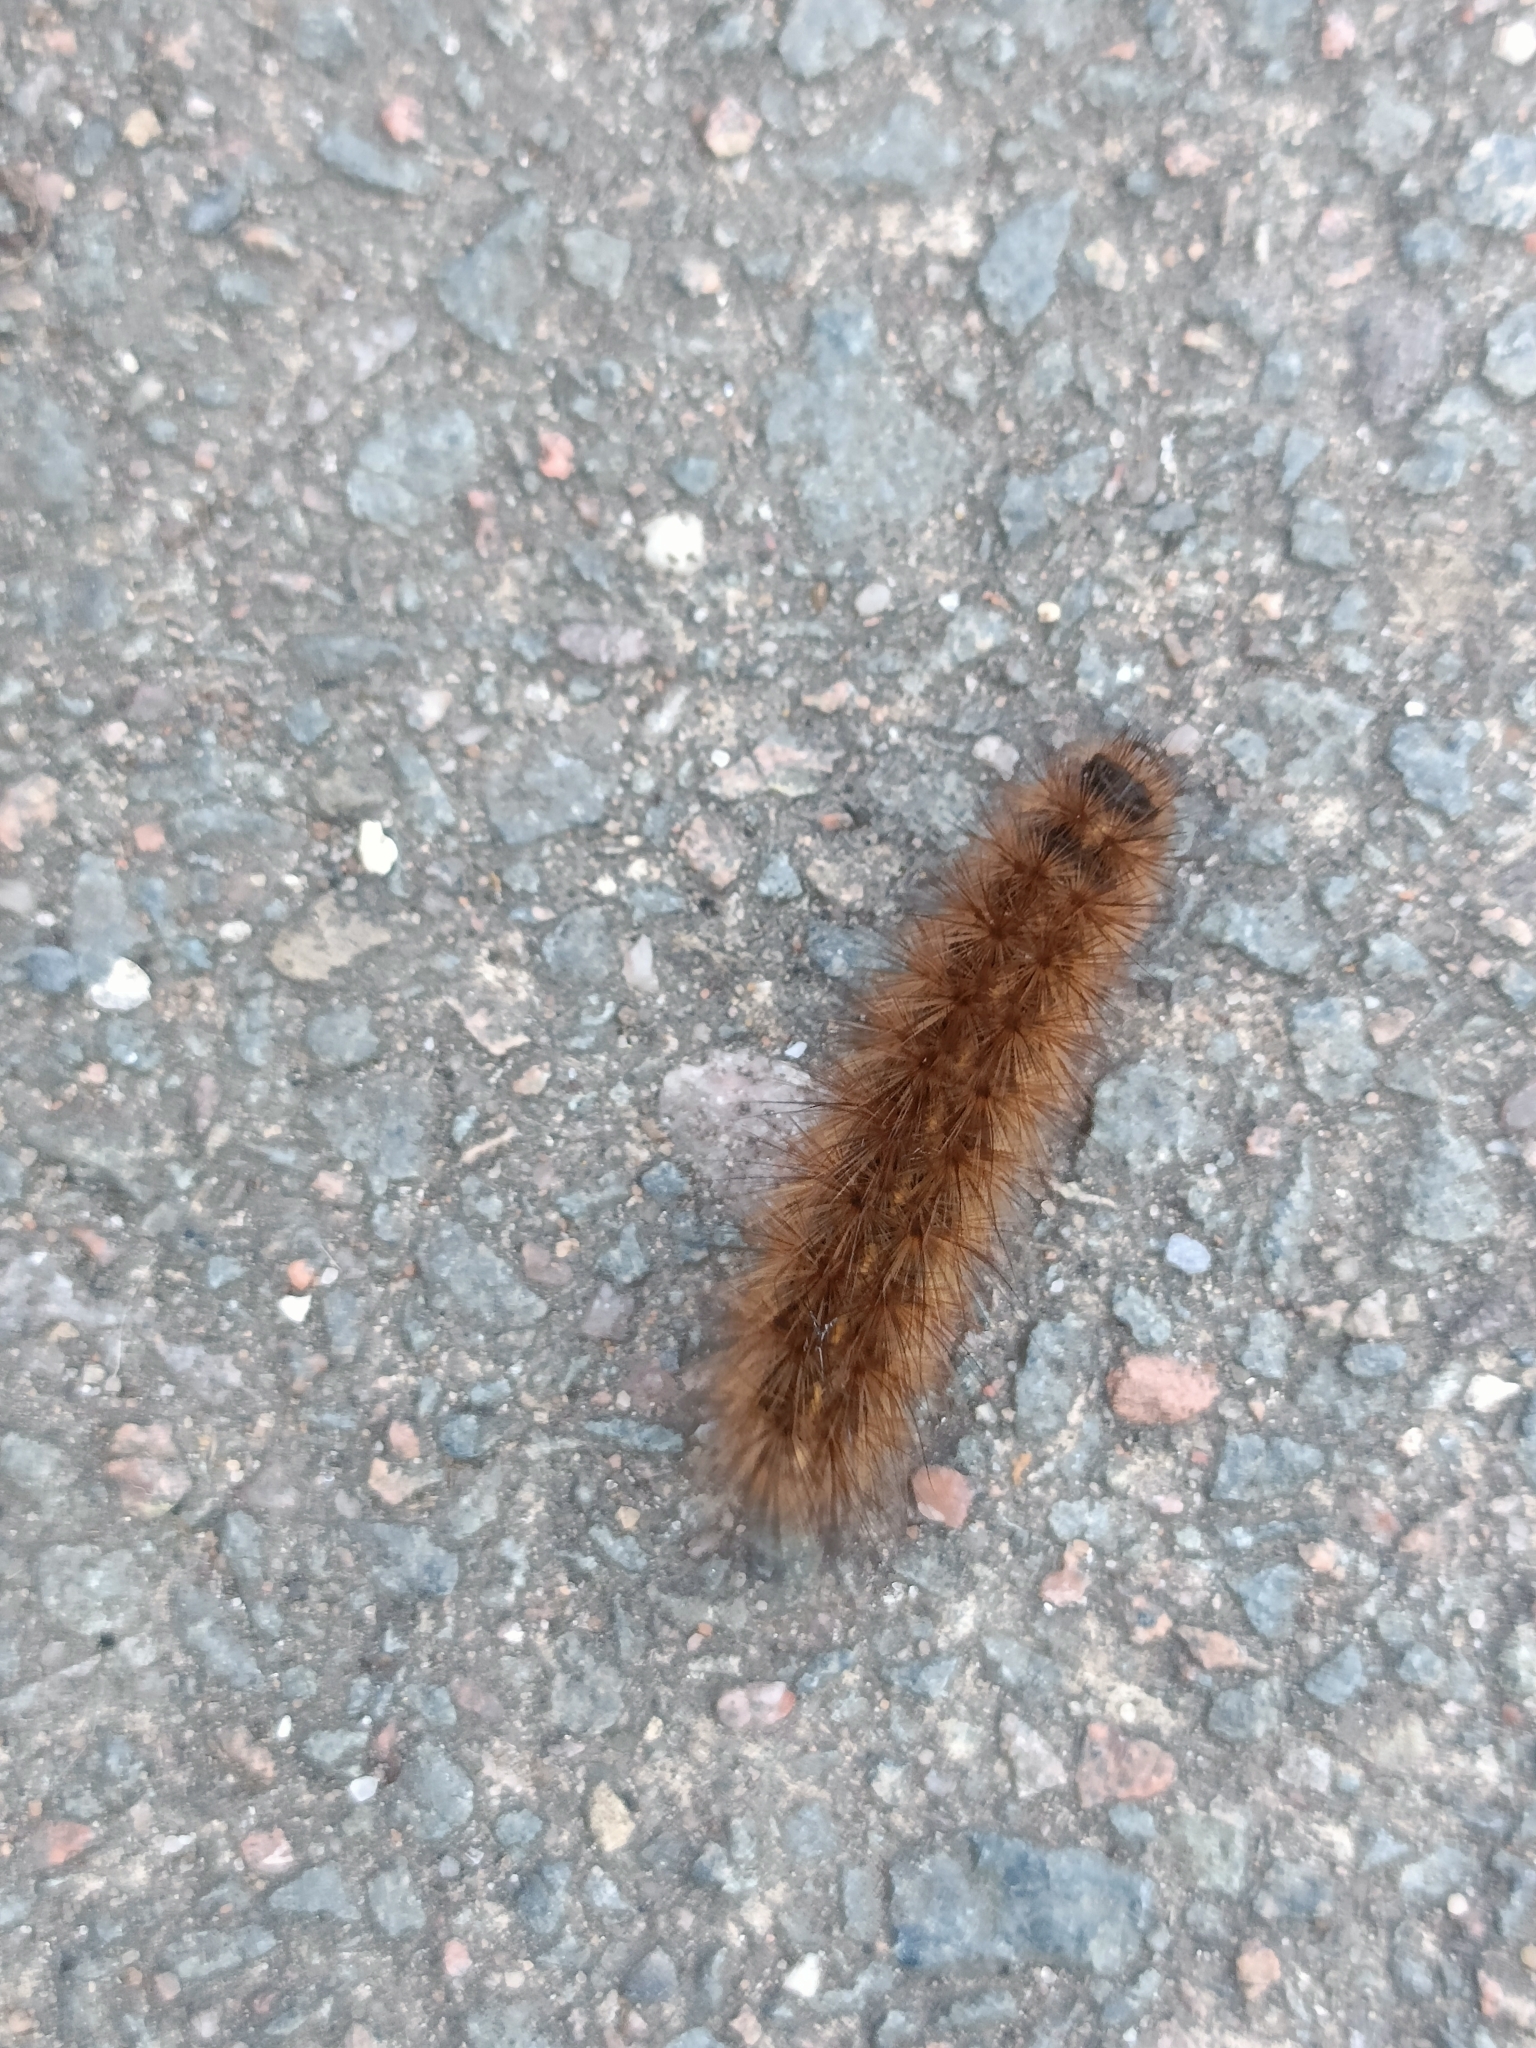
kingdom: Animalia
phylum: Arthropoda
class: Insecta
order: Lepidoptera
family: Erebidae
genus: Phragmatobia
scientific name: Phragmatobia fuliginosa
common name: Ruby tiger
